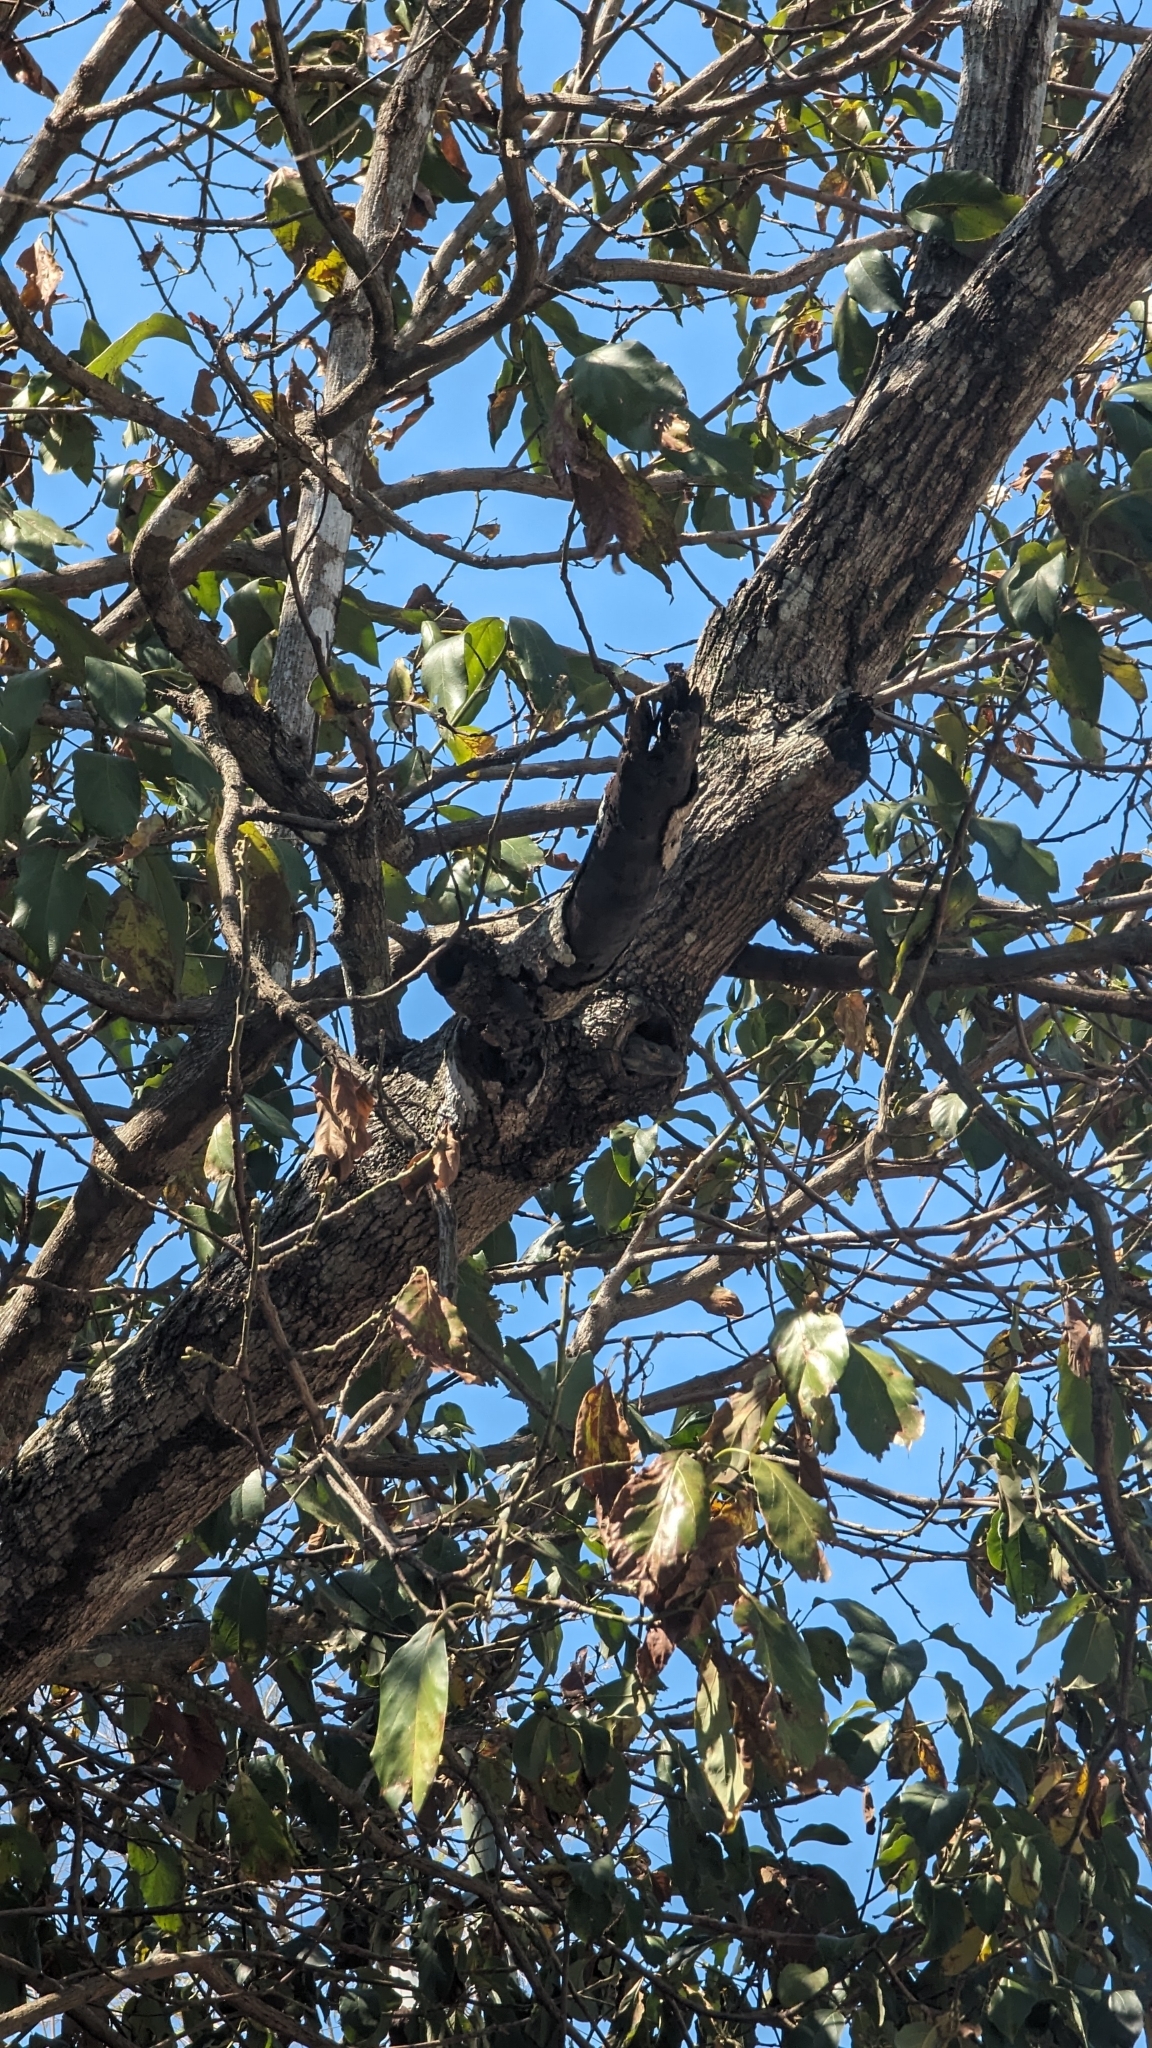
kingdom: Animalia
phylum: Chordata
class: Squamata
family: Iguanidae
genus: Ctenosaura
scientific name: Ctenosaura similis
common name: Black spiny-tailed iguana
